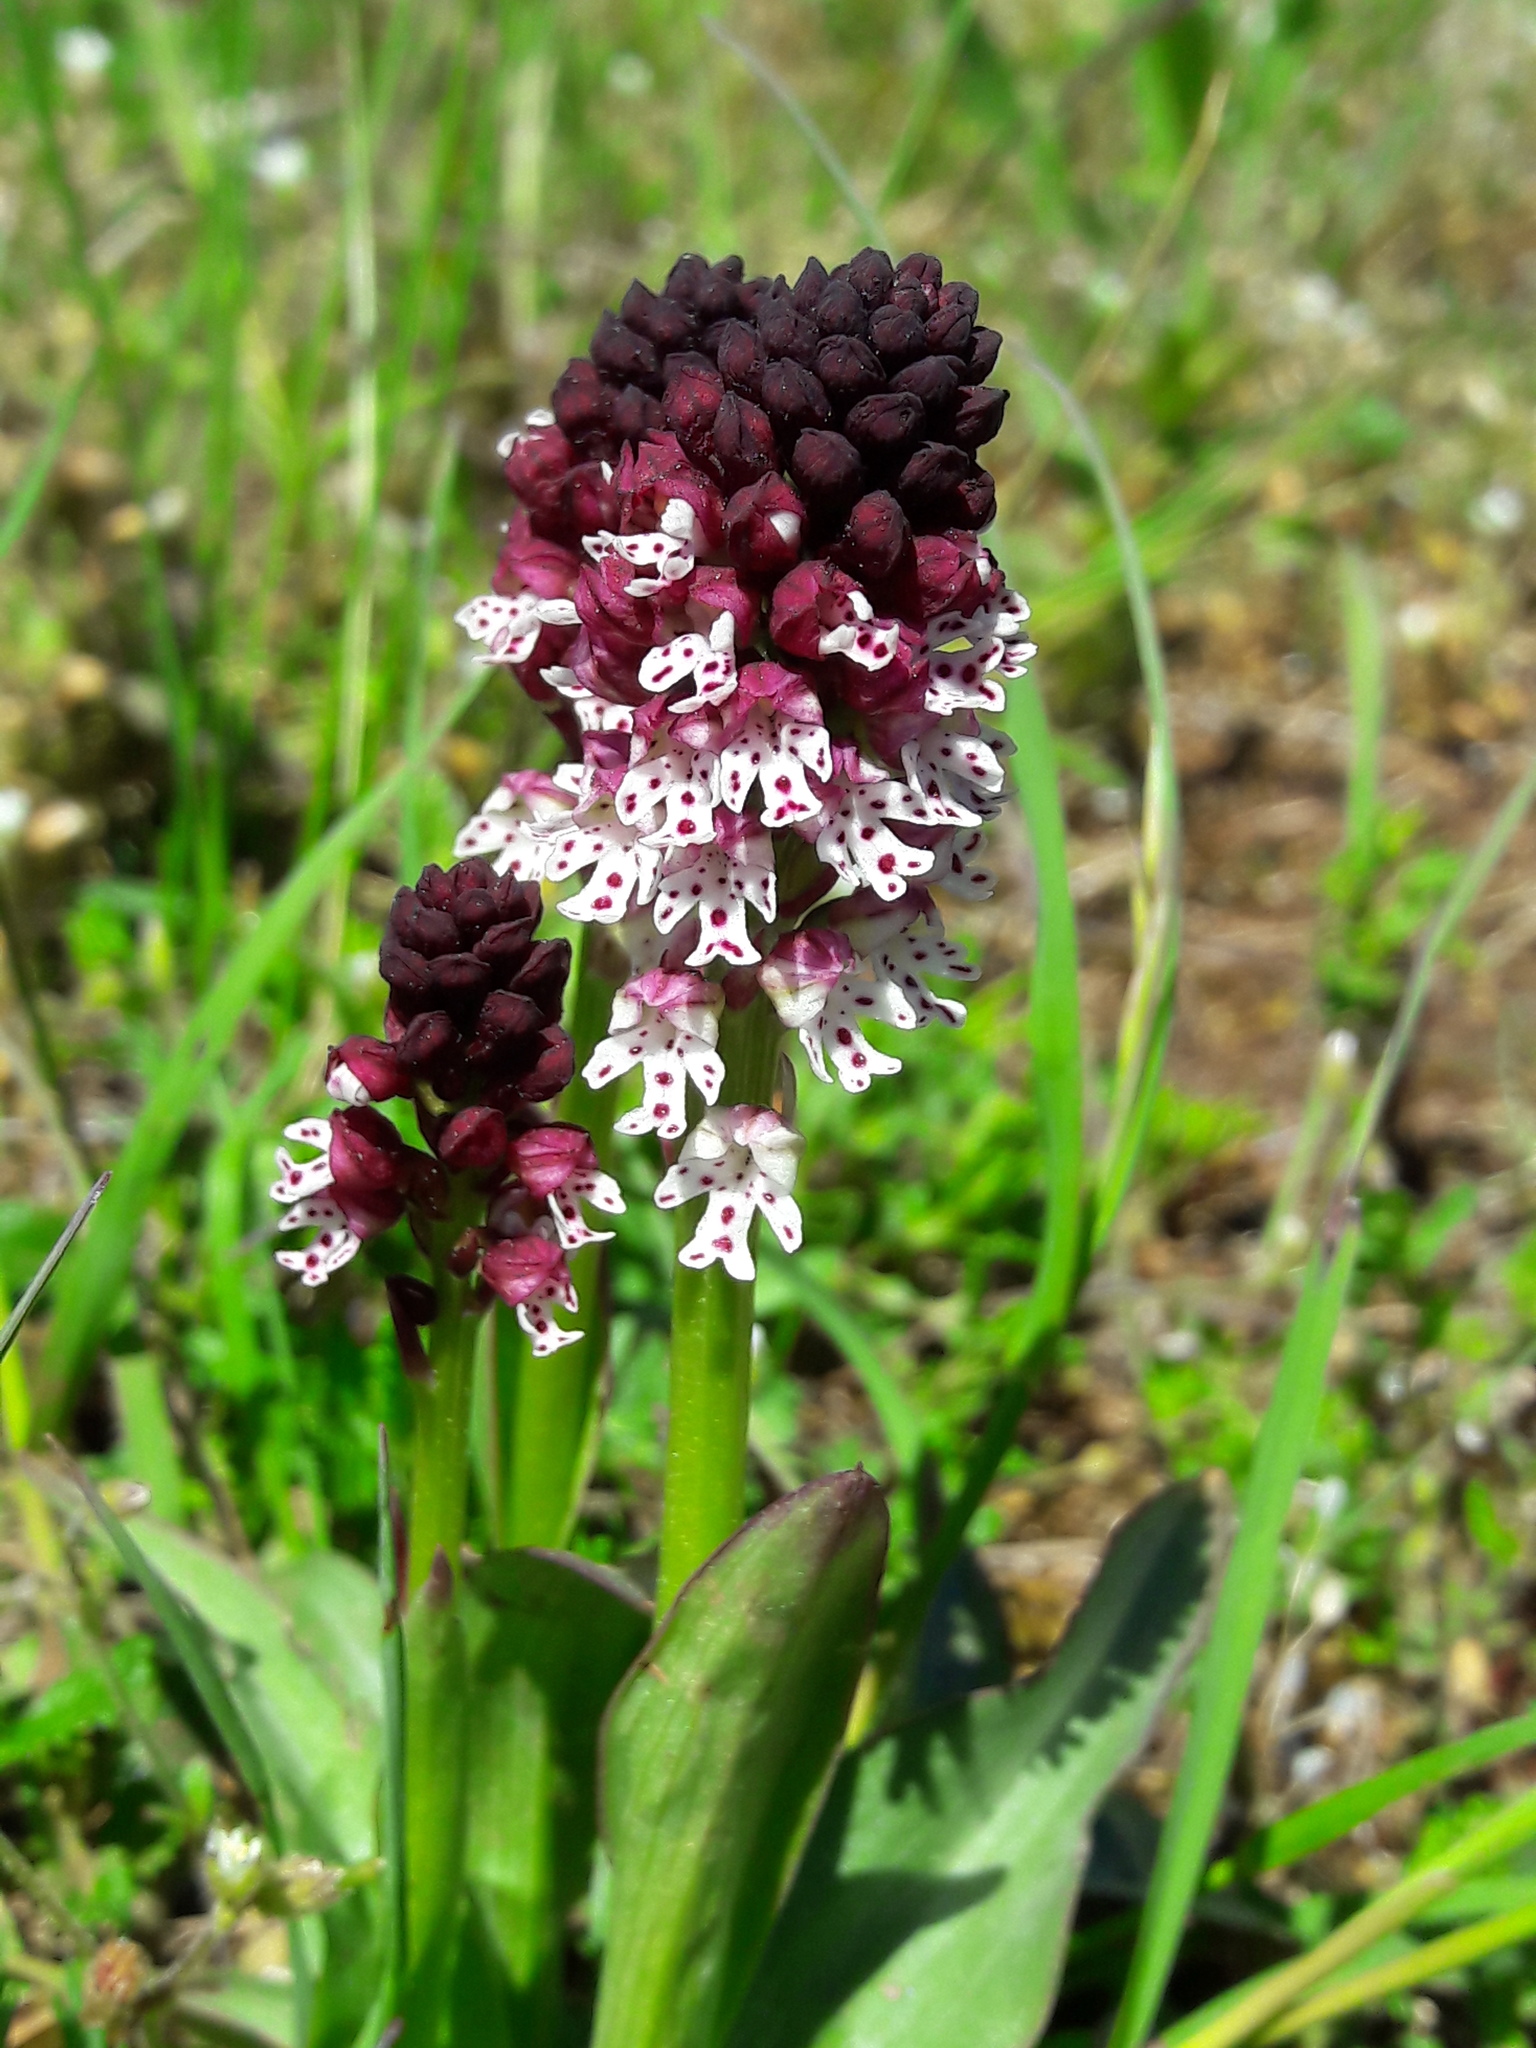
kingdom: Plantae
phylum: Tracheophyta
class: Liliopsida
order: Asparagales
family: Orchidaceae
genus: Neotinea
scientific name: Neotinea ustulata
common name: Burnt orchid
